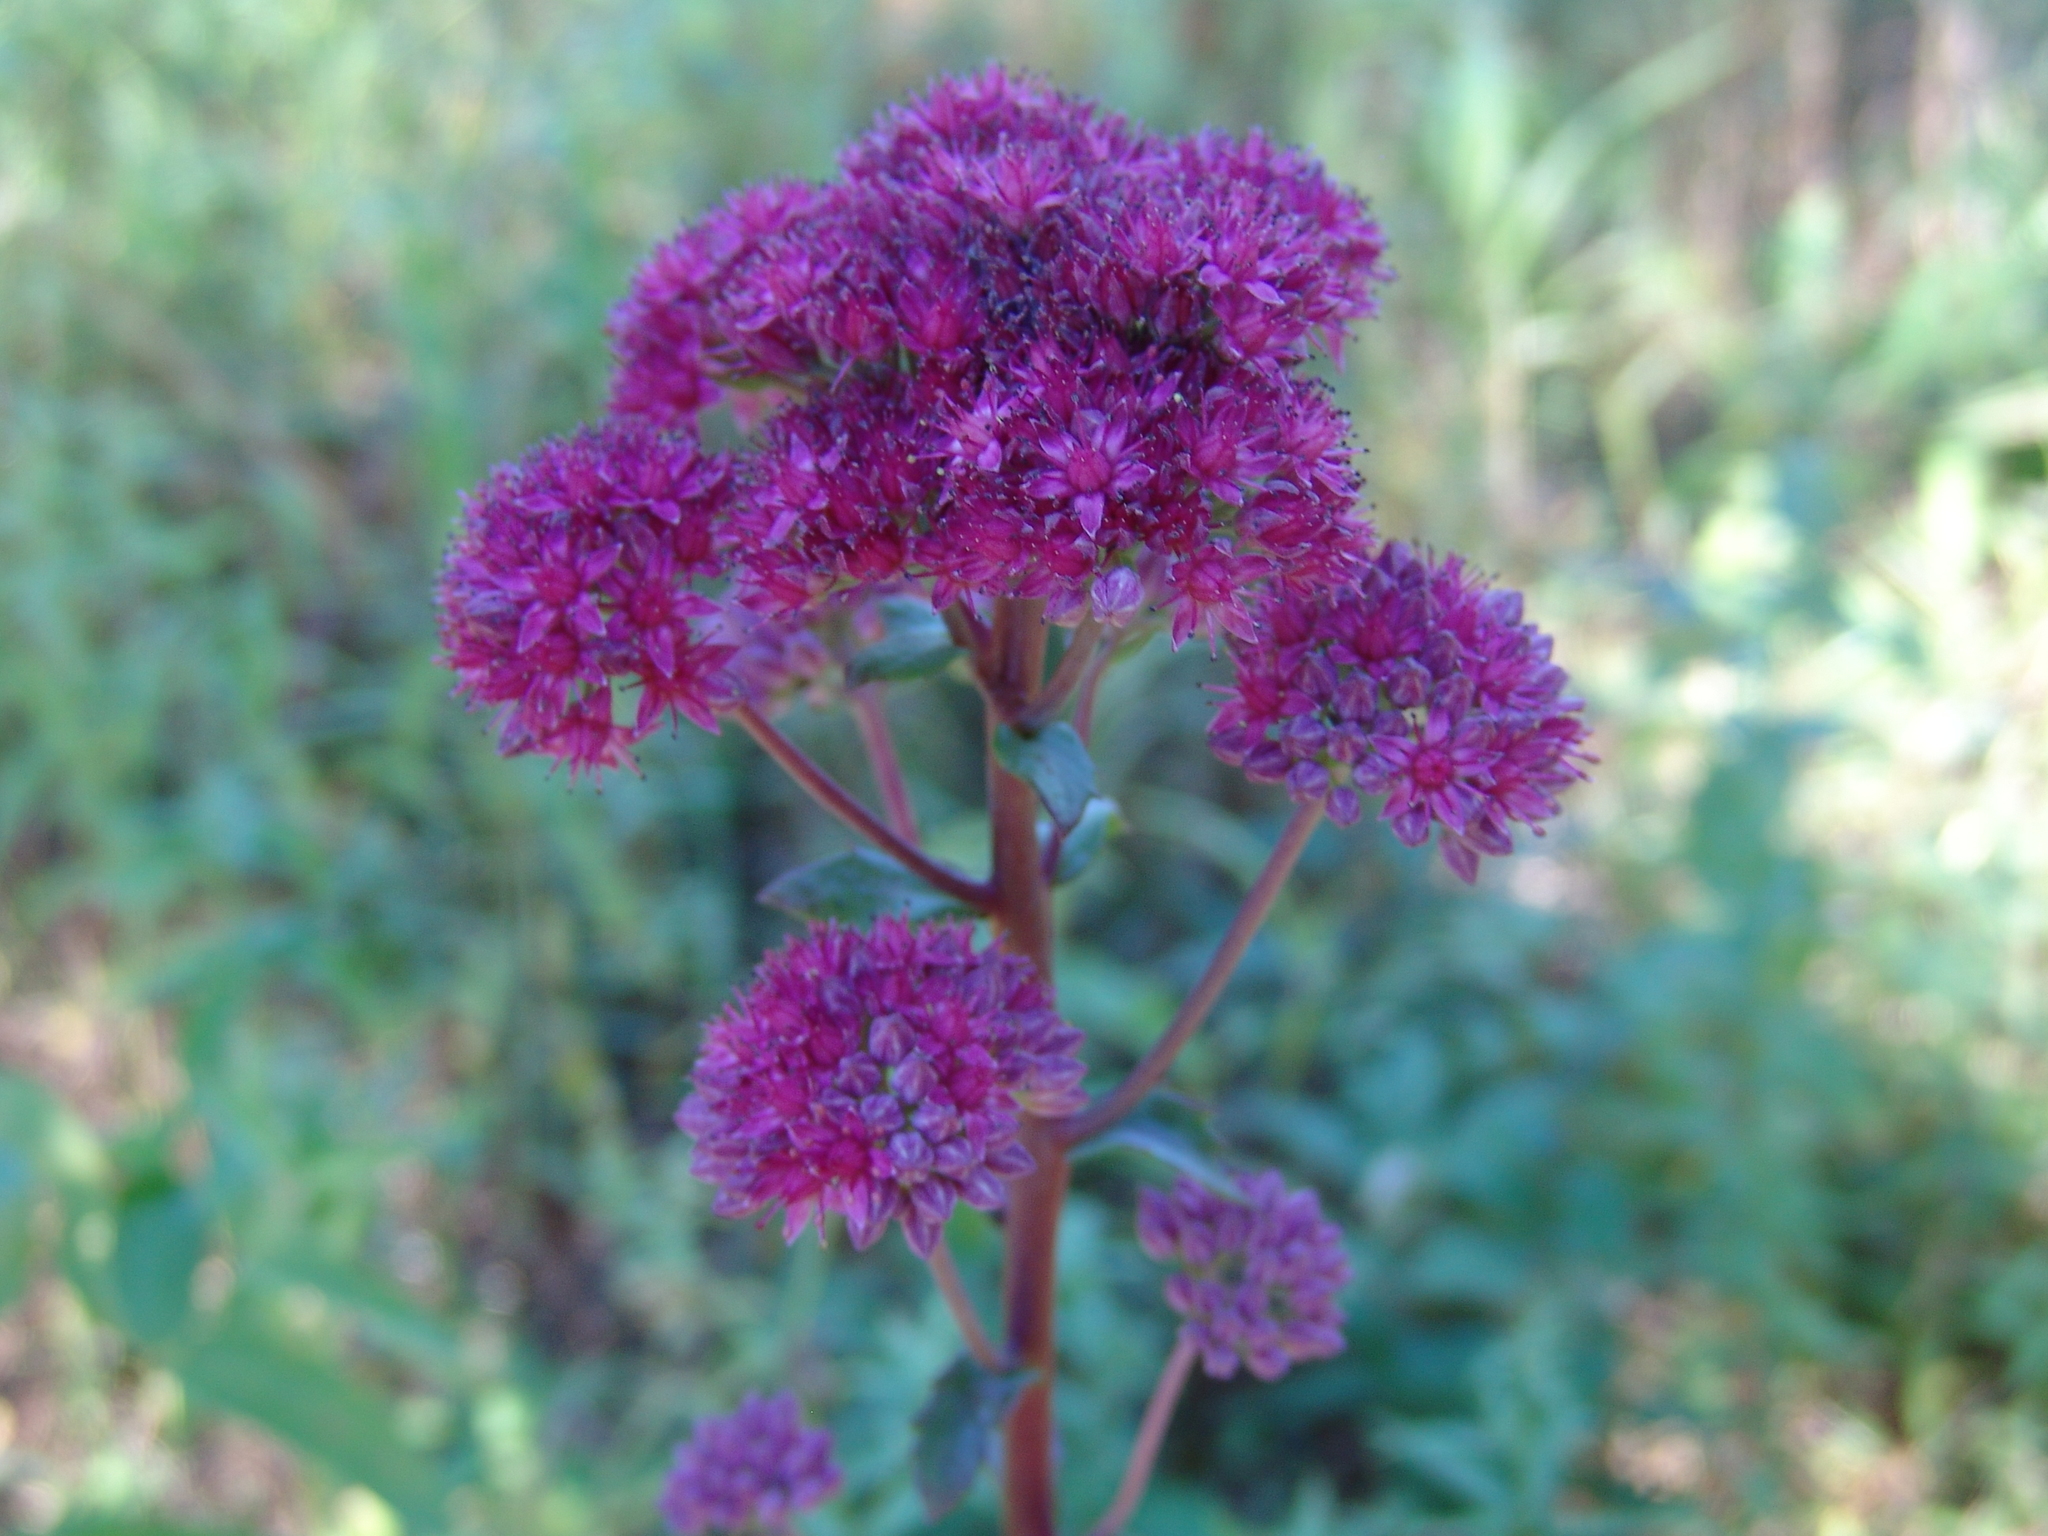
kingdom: Plantae
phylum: Tracheophyta
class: Magnoliopsida
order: Saxifragales
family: Crassulaceae
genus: Hylotelephium
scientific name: Hylotelephium telephium
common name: Live-forever
